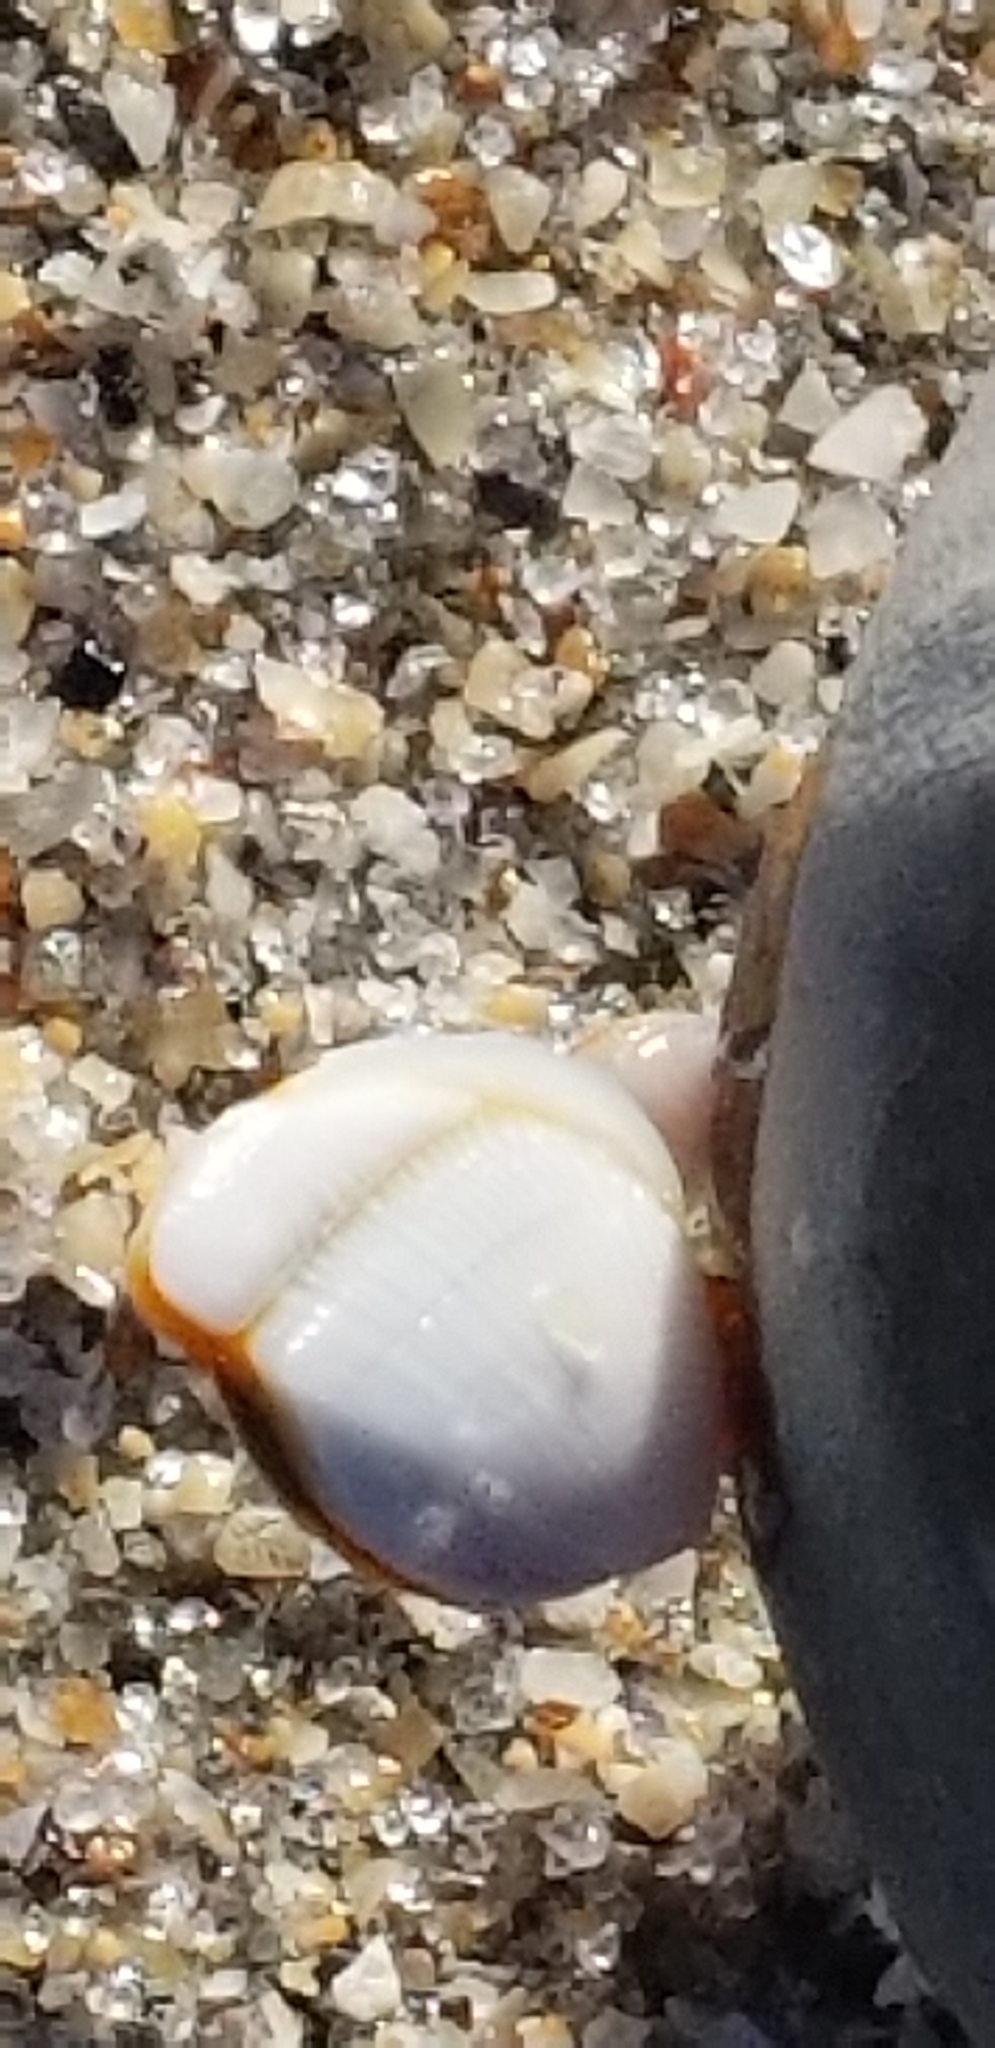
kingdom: Animalia
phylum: Arthropoda
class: Maxillopoda
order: Pedunculata
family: Lepadidae
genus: Lepas
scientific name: Lepas anserifera
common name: Goose barnacle
